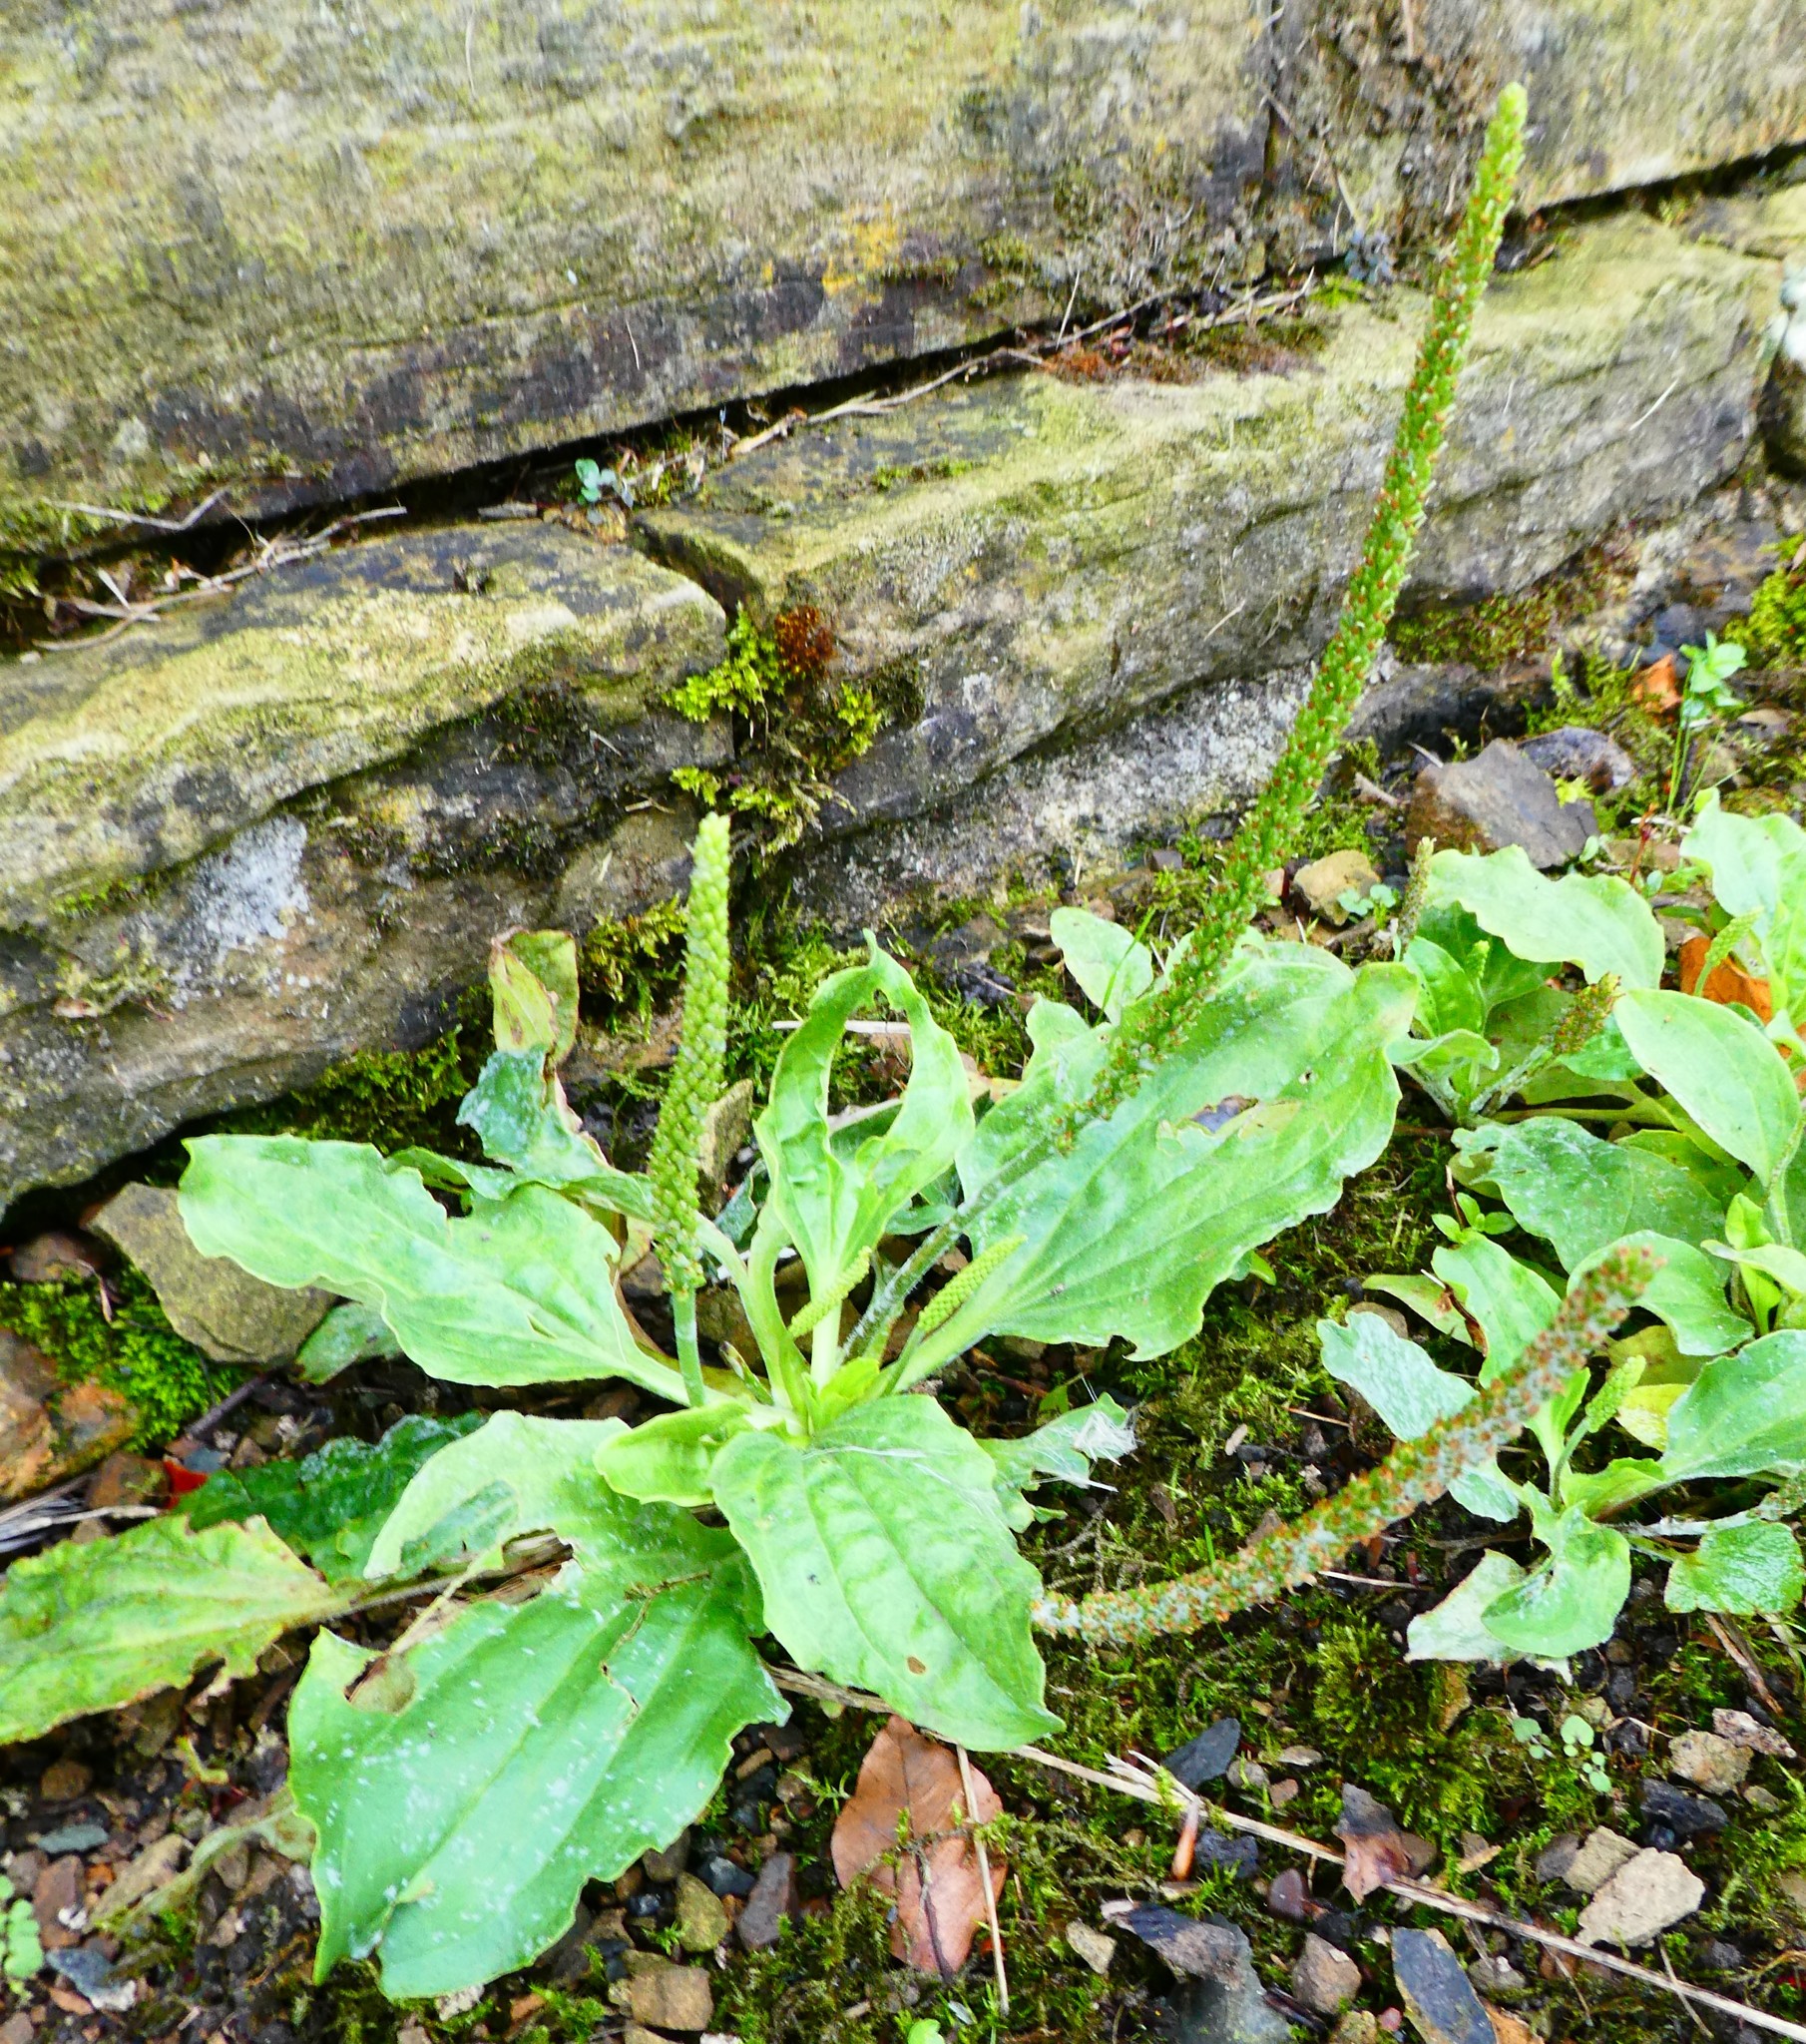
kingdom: Plantae
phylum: Tracheophyta
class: Magnoliopsida
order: Lamiales
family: Plantaginaceae
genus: Plantago
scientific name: Plantago major
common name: Common plantain
